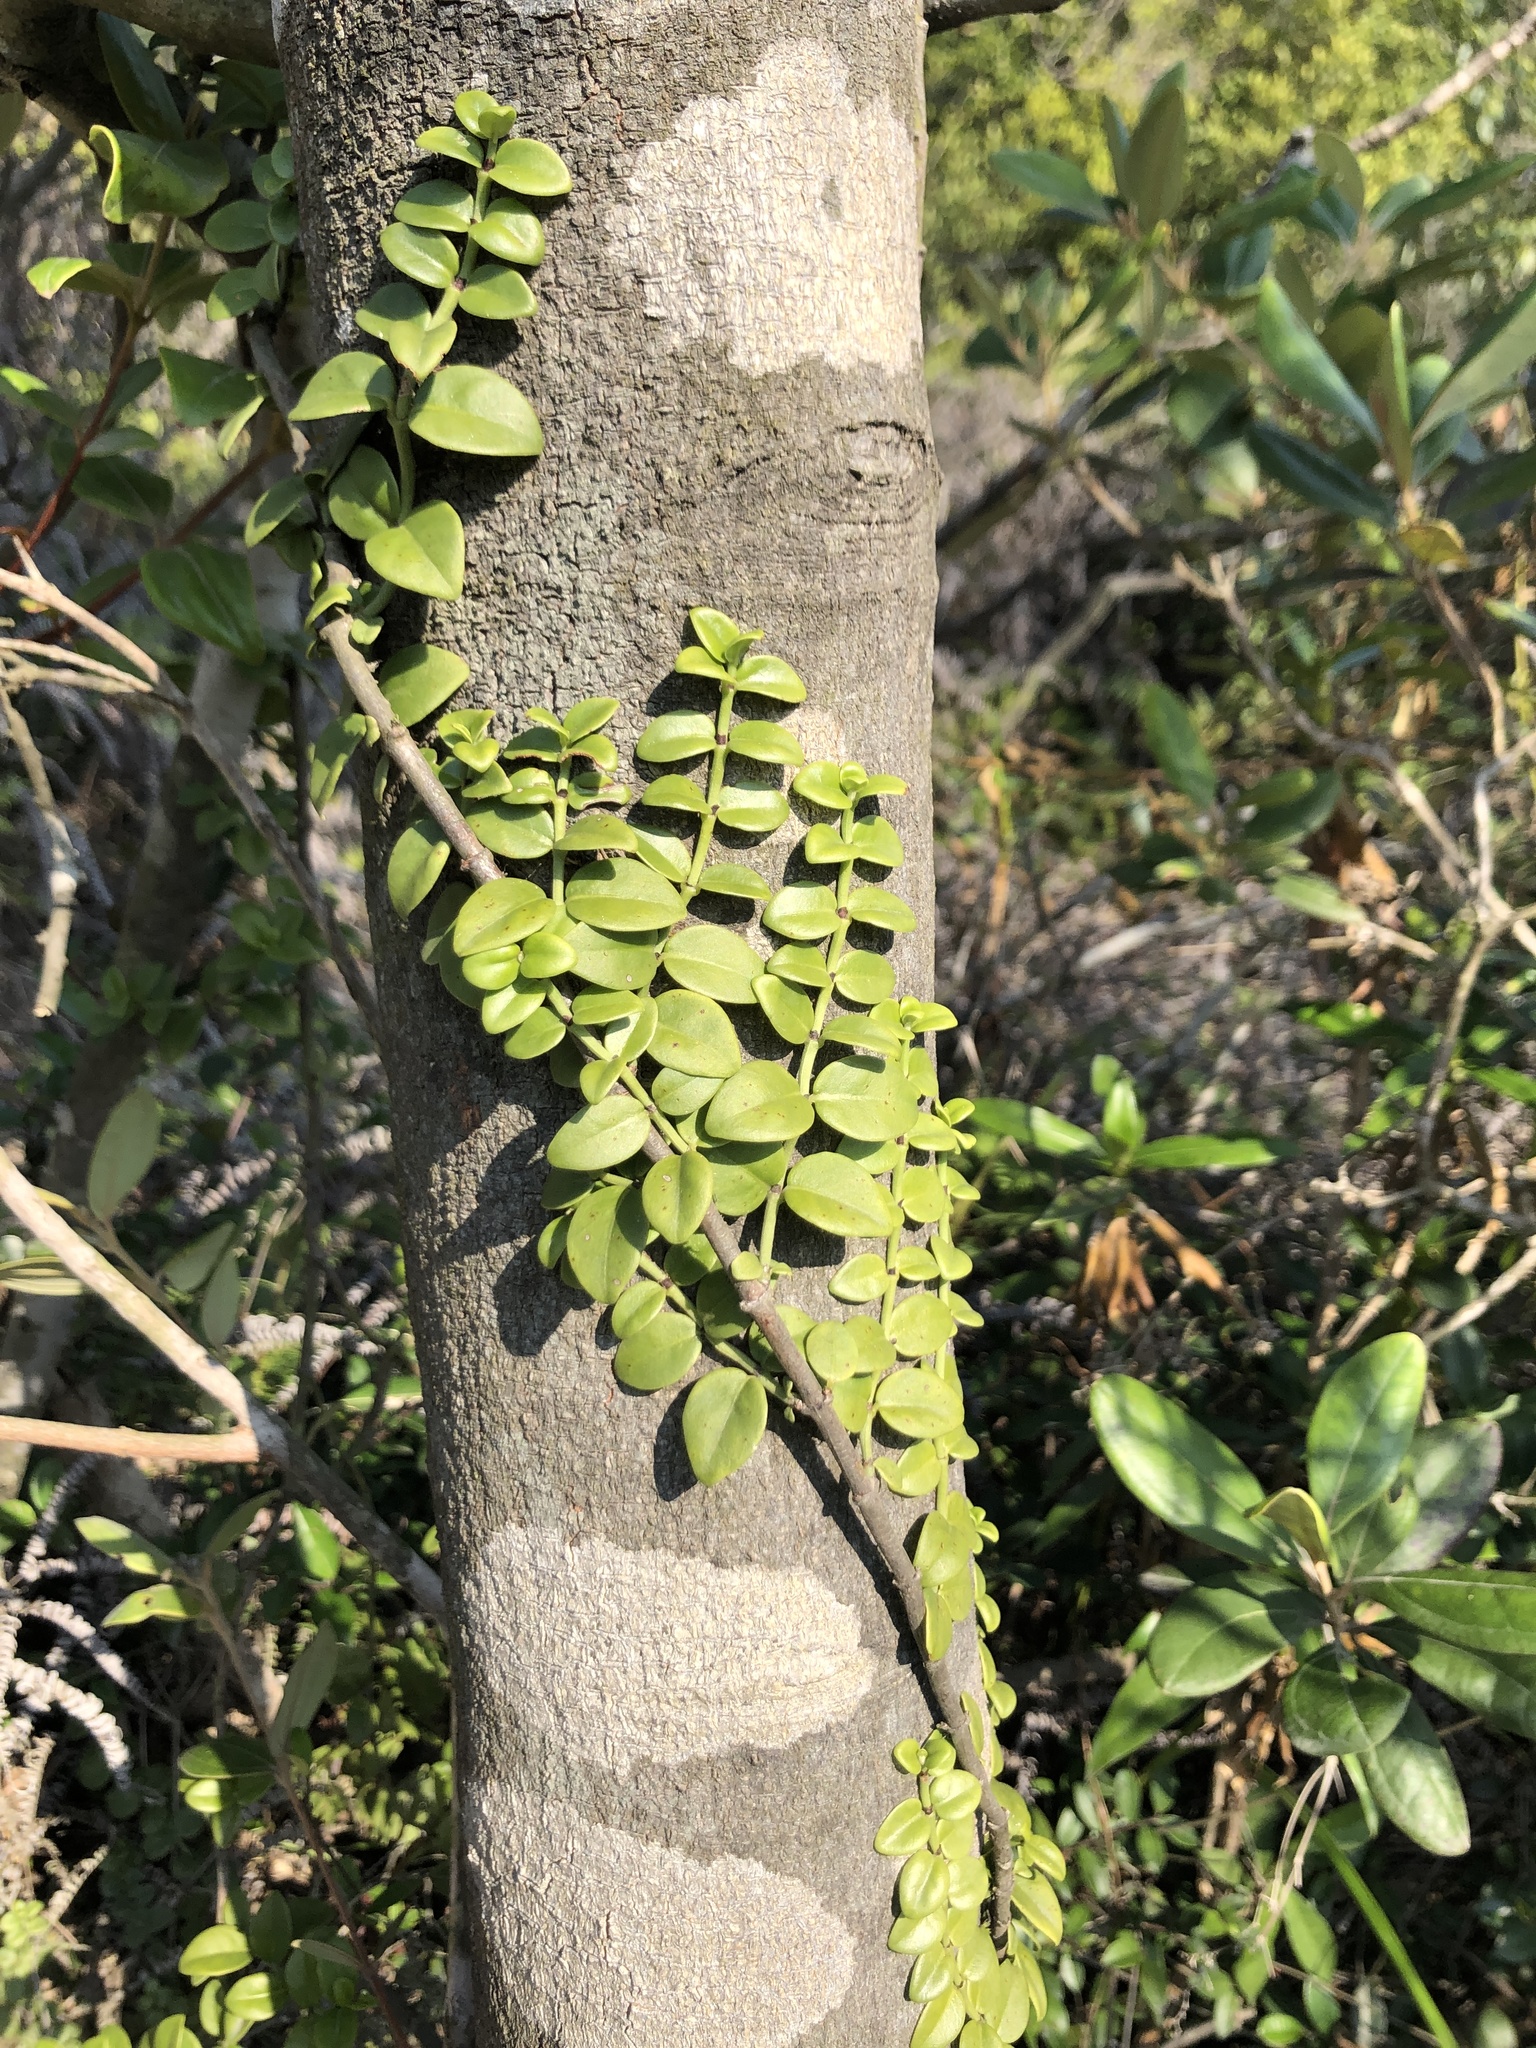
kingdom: Plantae
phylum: Tracheophyta
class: Magnoliopsida
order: Gentianales
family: Rubiaceae
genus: Psychotria
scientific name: Psychotria serpens
